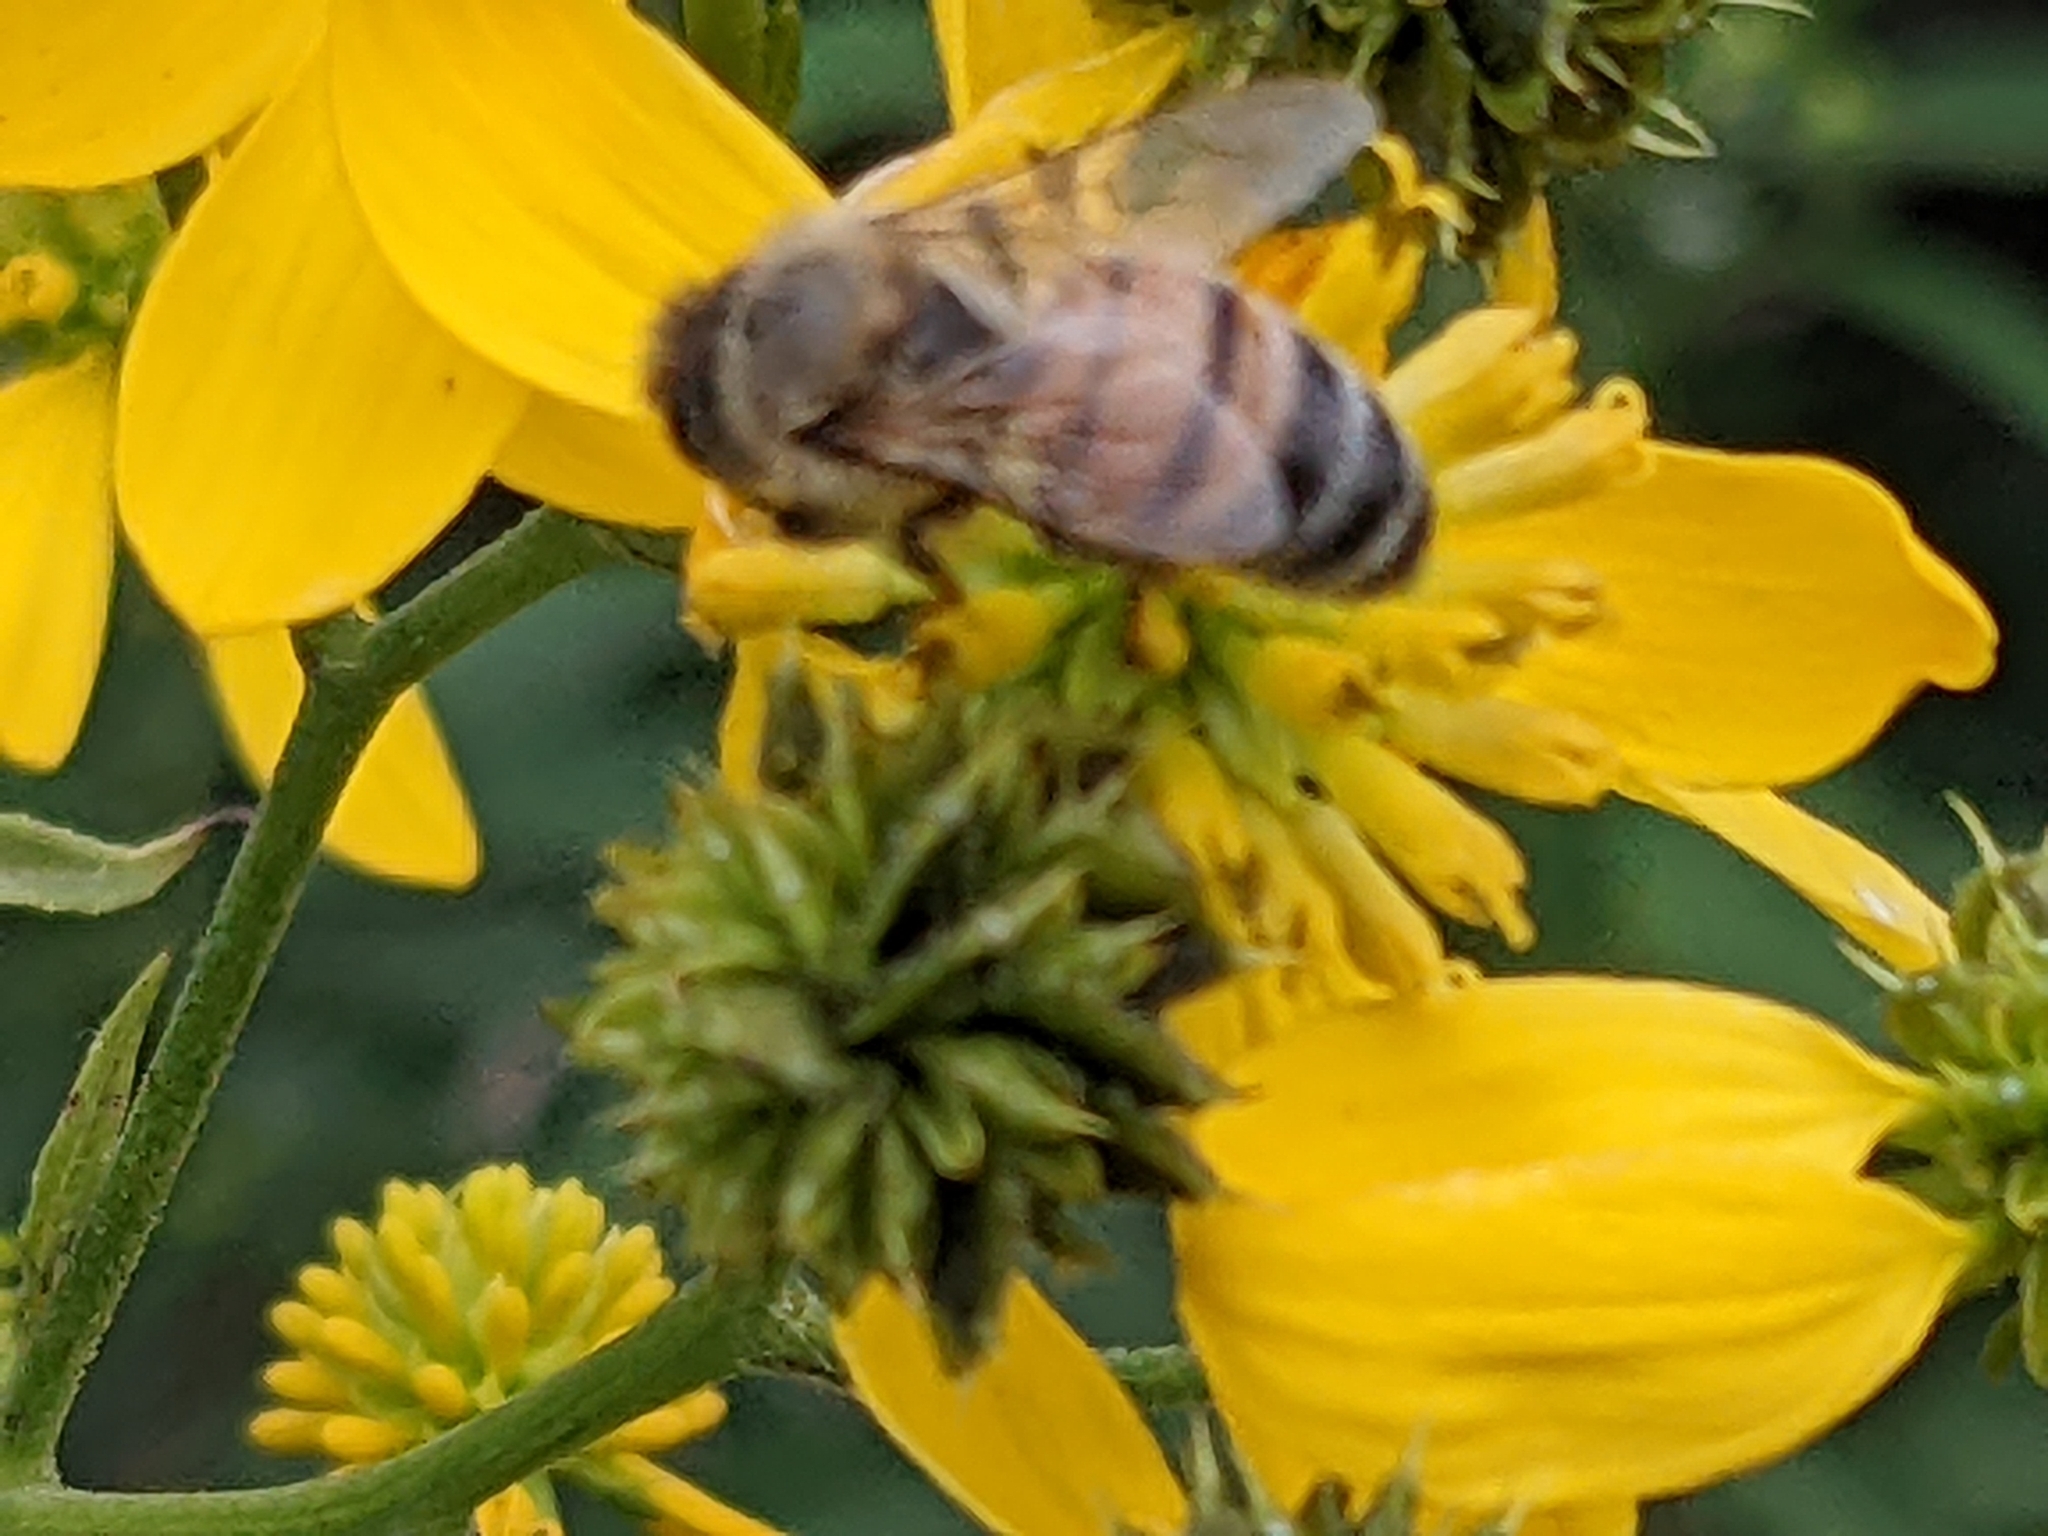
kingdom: Animalia
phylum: Arthropoda
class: Insecta
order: Hymenoptera
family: Apidae
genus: Apis
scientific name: Apis mellifera
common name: Honey bee
